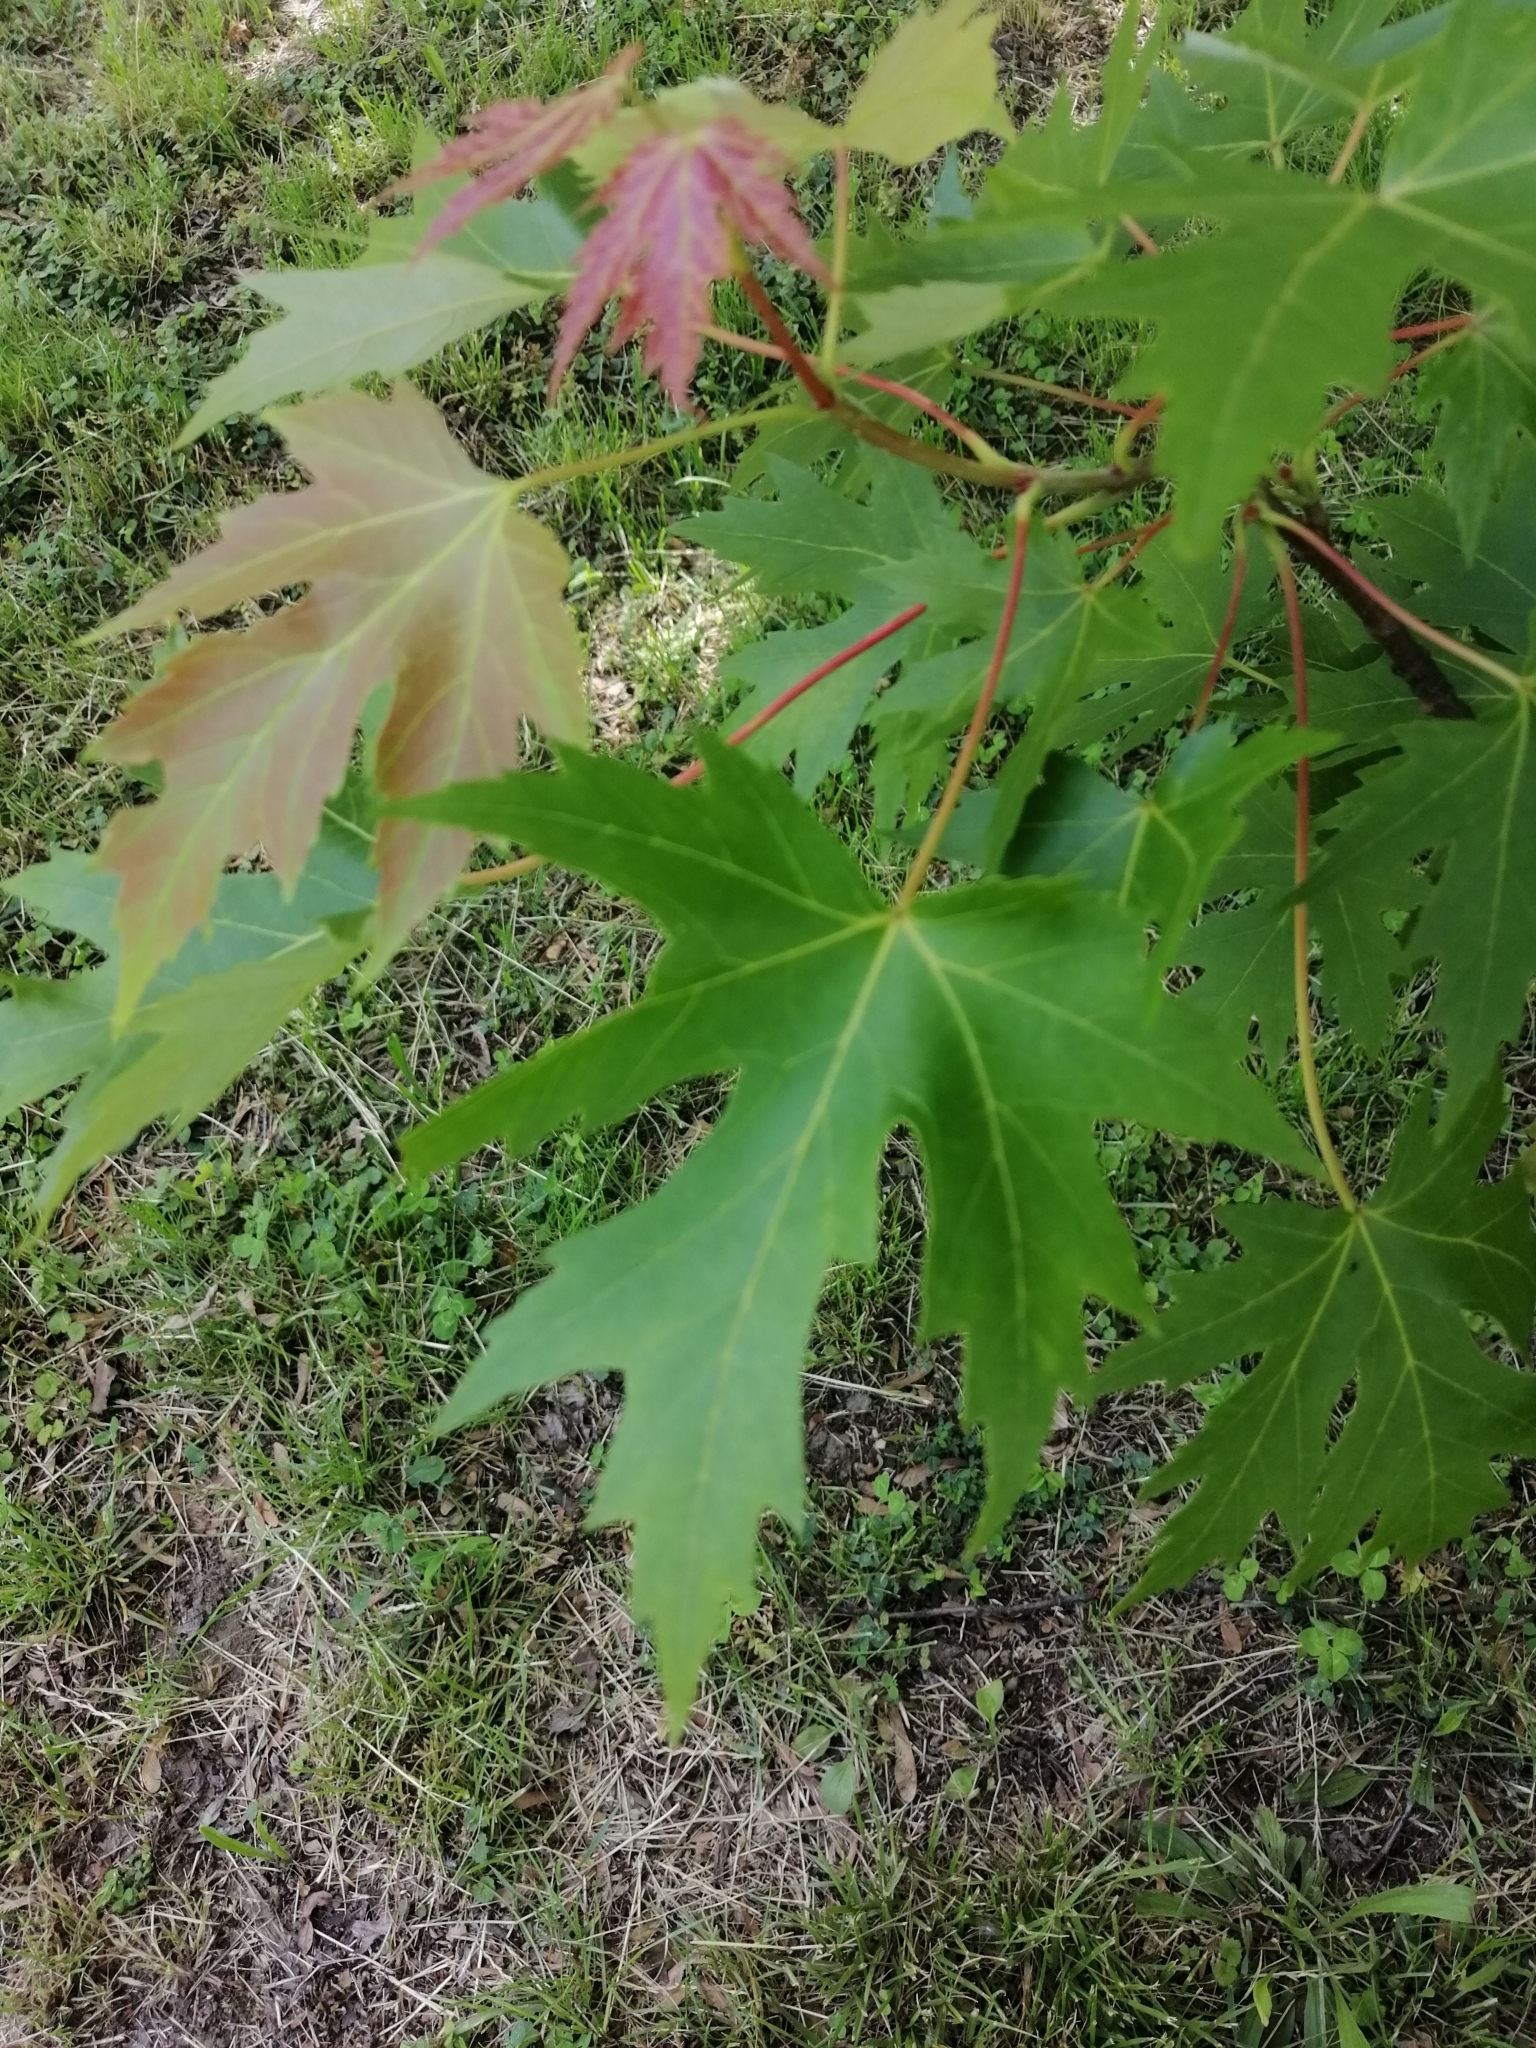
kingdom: Plantae
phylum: Tracheophyta
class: Magnoliopsida
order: Sapindales
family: Sapindaceae
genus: Acer
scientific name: Acer saccharinum
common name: Silver maple
